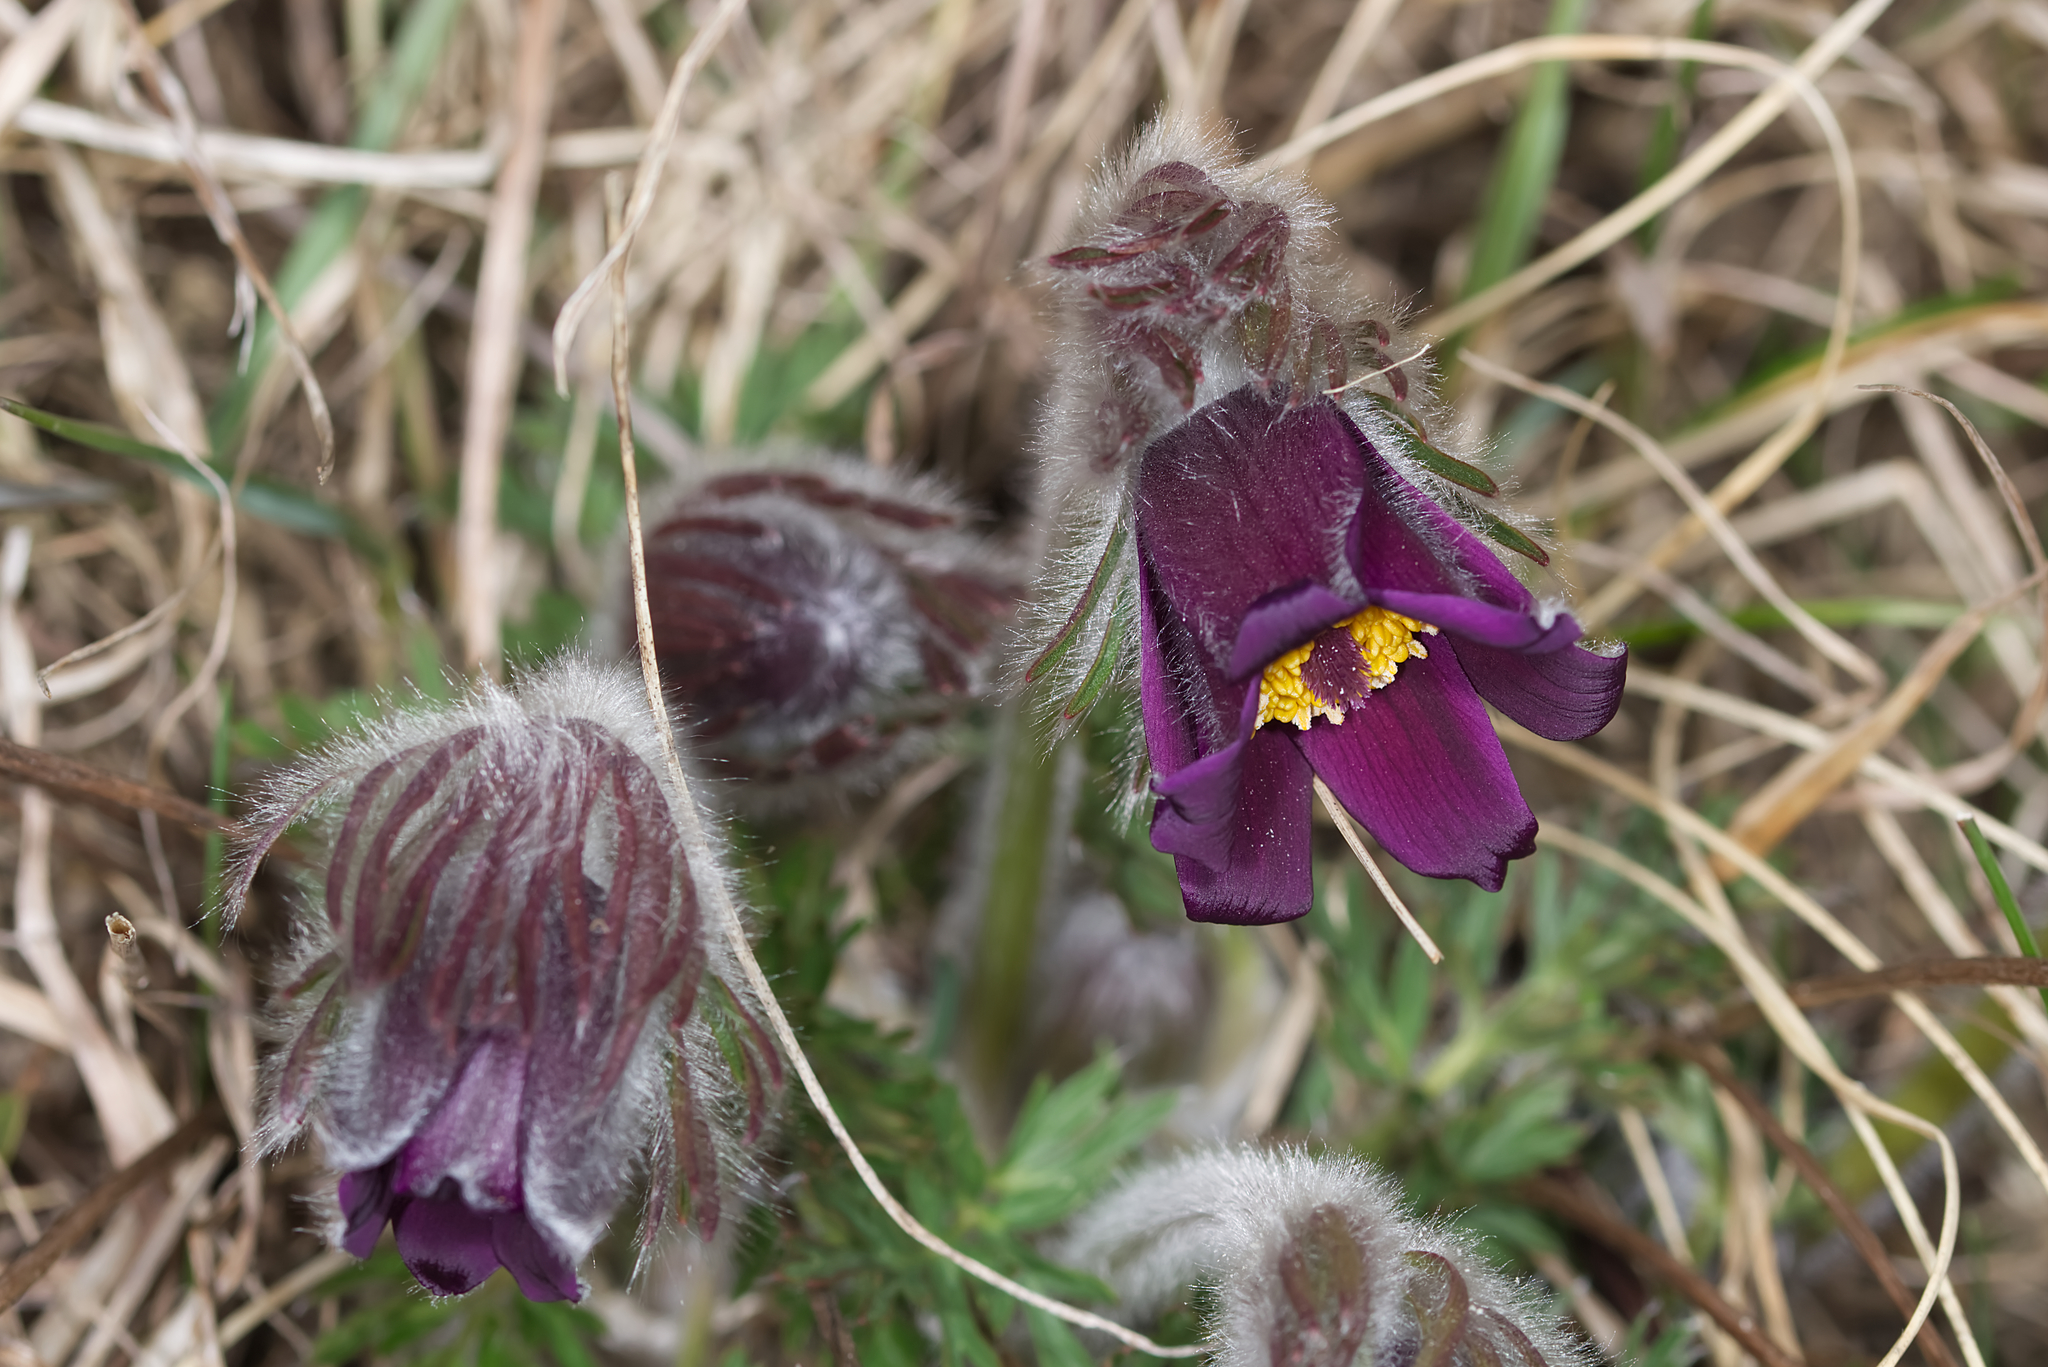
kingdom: Plantae
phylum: Tracheophyta
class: Magnoliopsida
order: Ranunculales
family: Ranunculaceae
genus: Pulsatilla
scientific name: Pulsatilla pratensis
